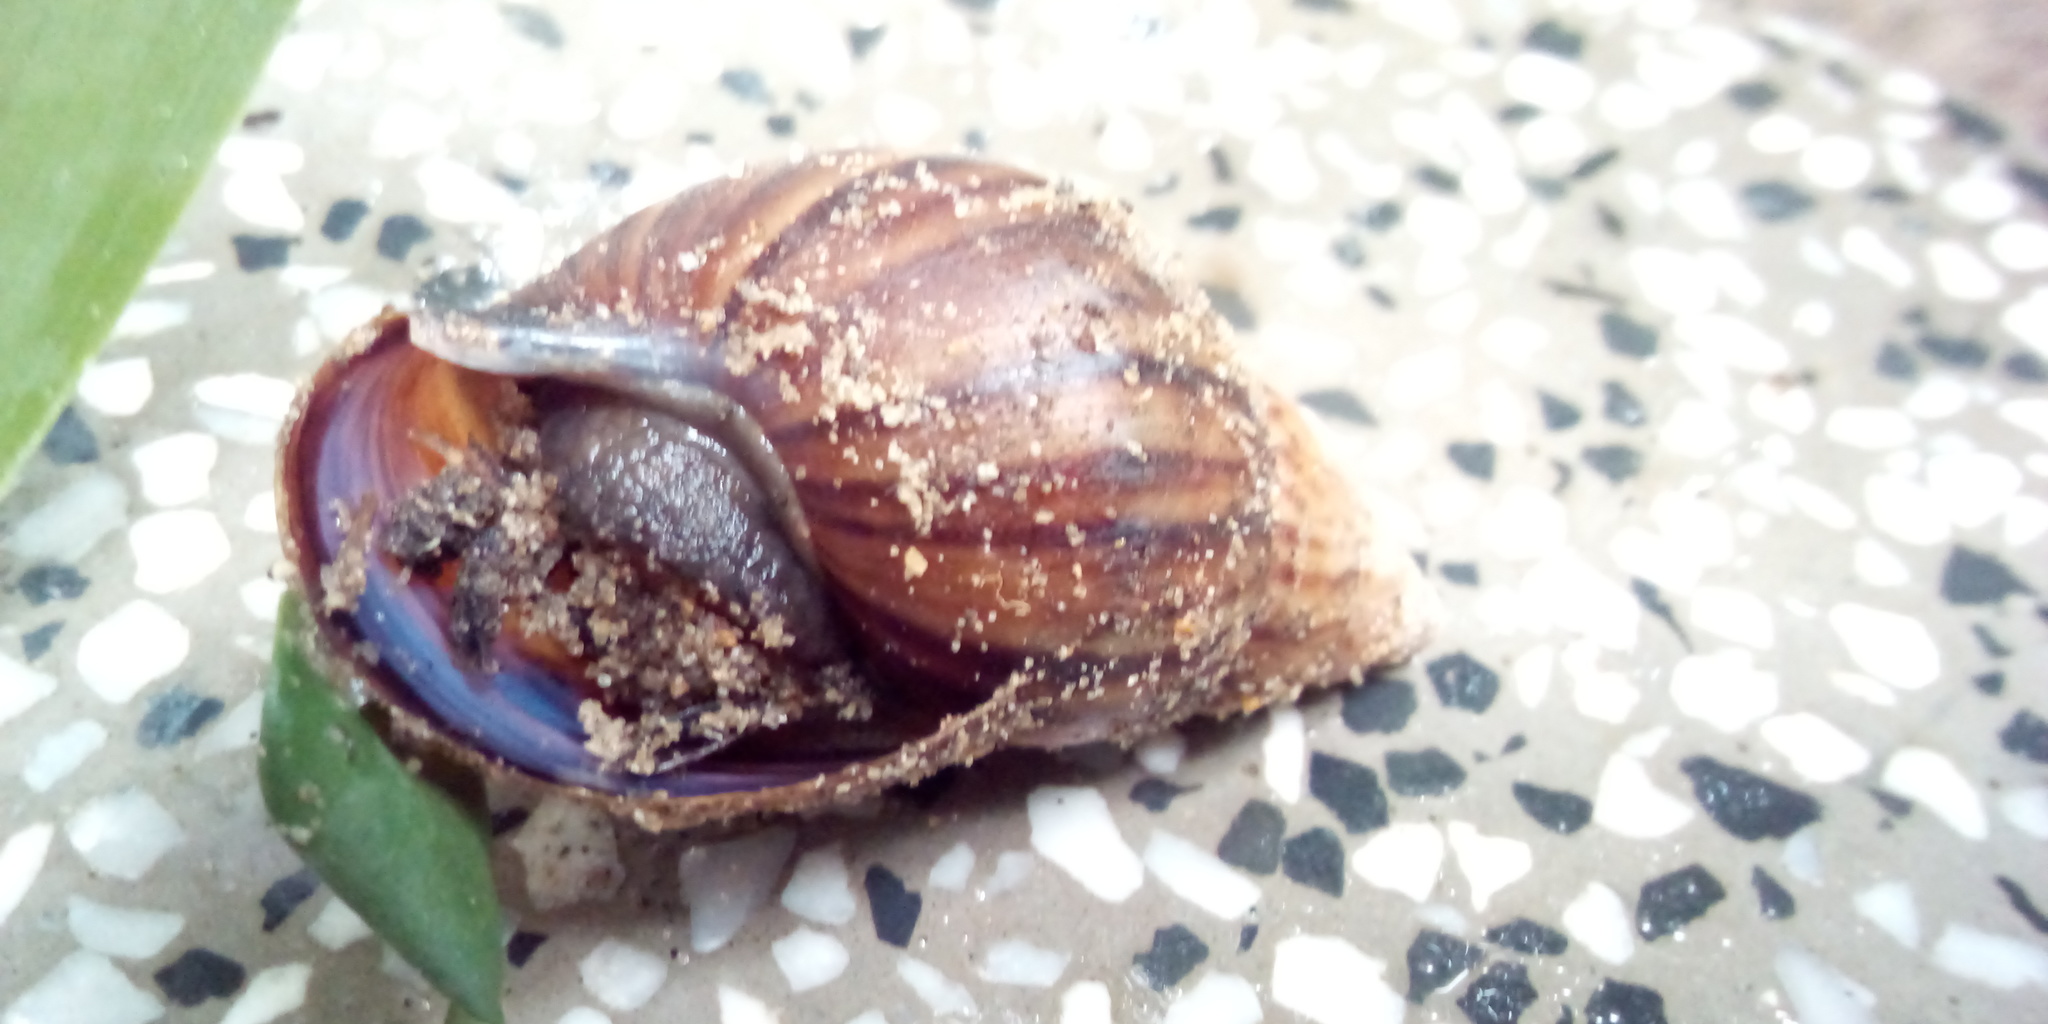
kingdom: Animalia
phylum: Mollusca
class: Gastropoda
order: Stylommatophora
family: Achatinidae
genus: Lissachatina
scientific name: Lissachatina fulica
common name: Giant african snail
